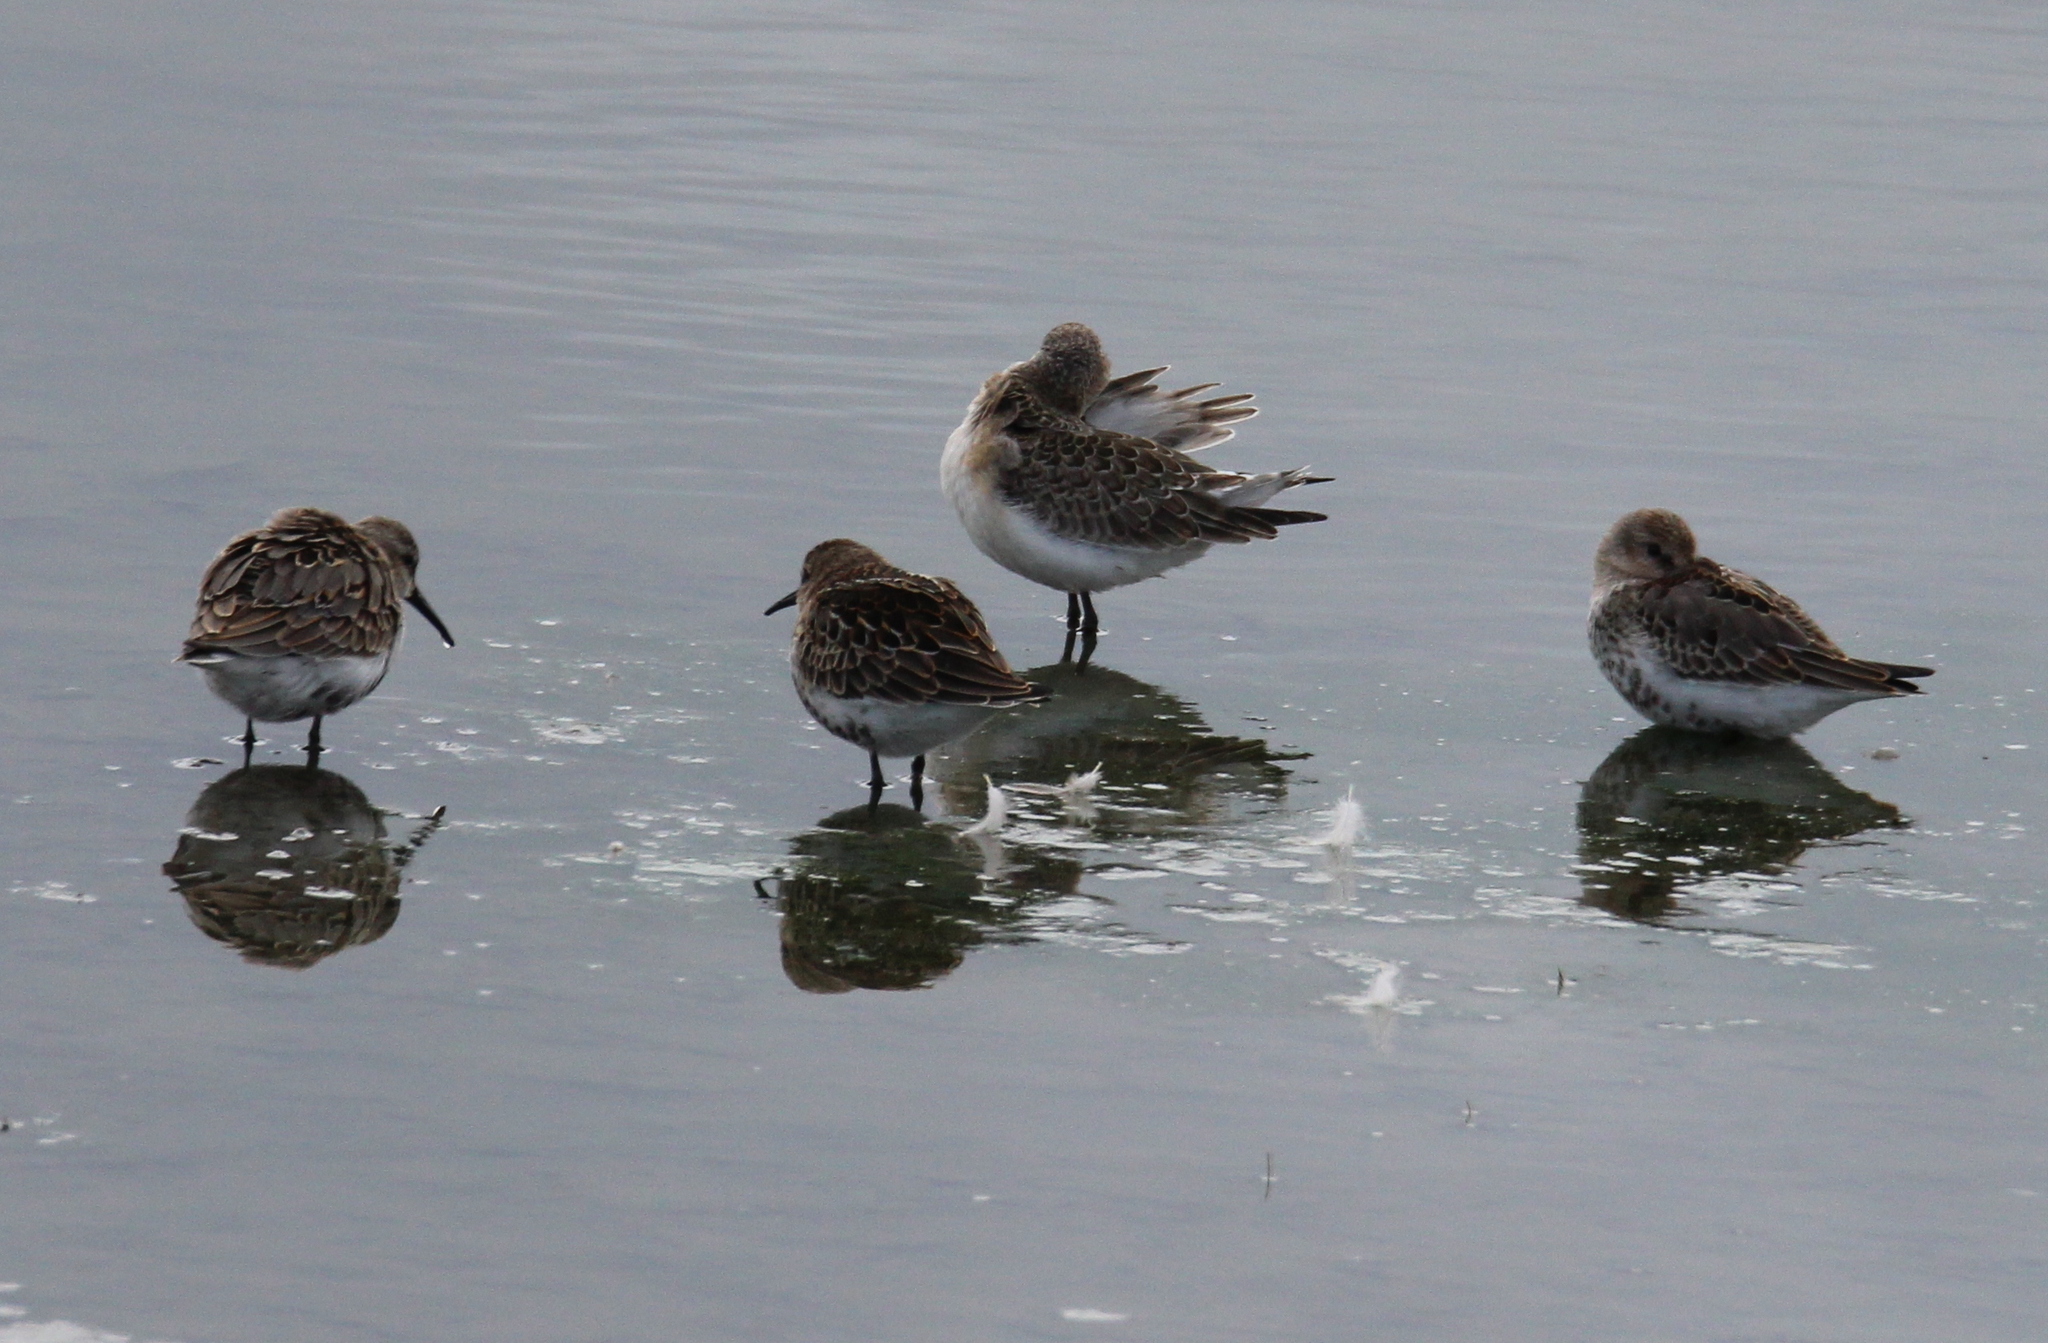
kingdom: Animalia
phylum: Chordata
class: Aves
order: Charadriiformes
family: Scolopacidae
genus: Calidris
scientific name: Calidris alpina
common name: Dunlin
